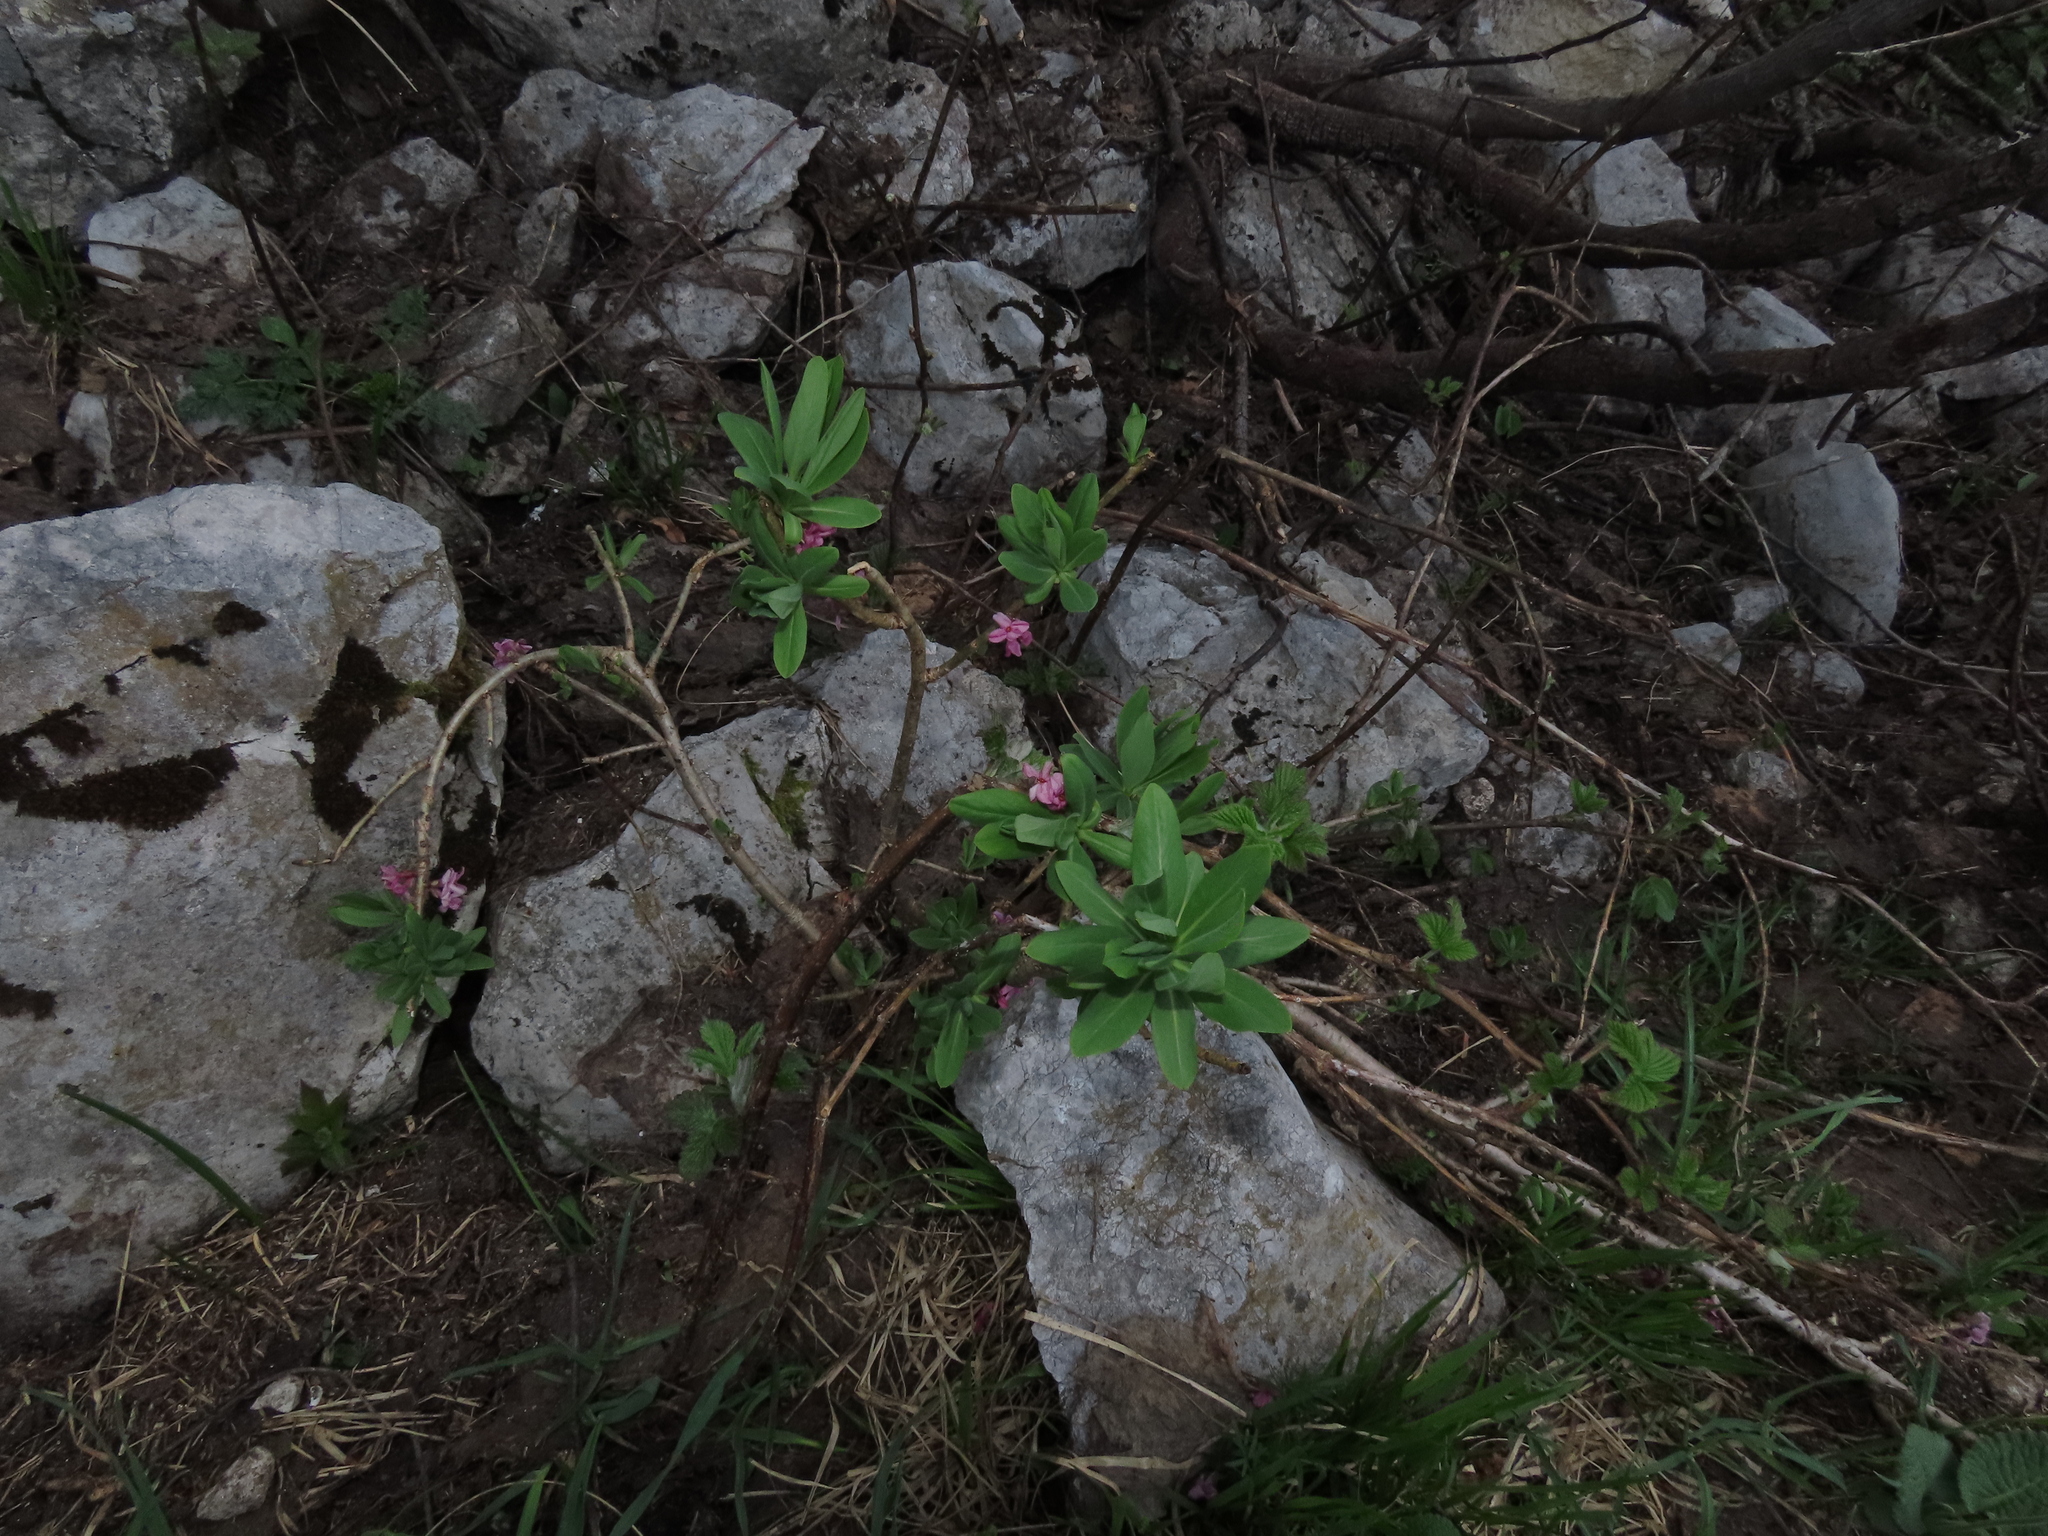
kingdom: Plantae
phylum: Tracheophyta
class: Magnoliopsida
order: Malvales
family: Thymelaeaceae
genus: Daphne
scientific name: Daphne mezereum
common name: Mezereon
